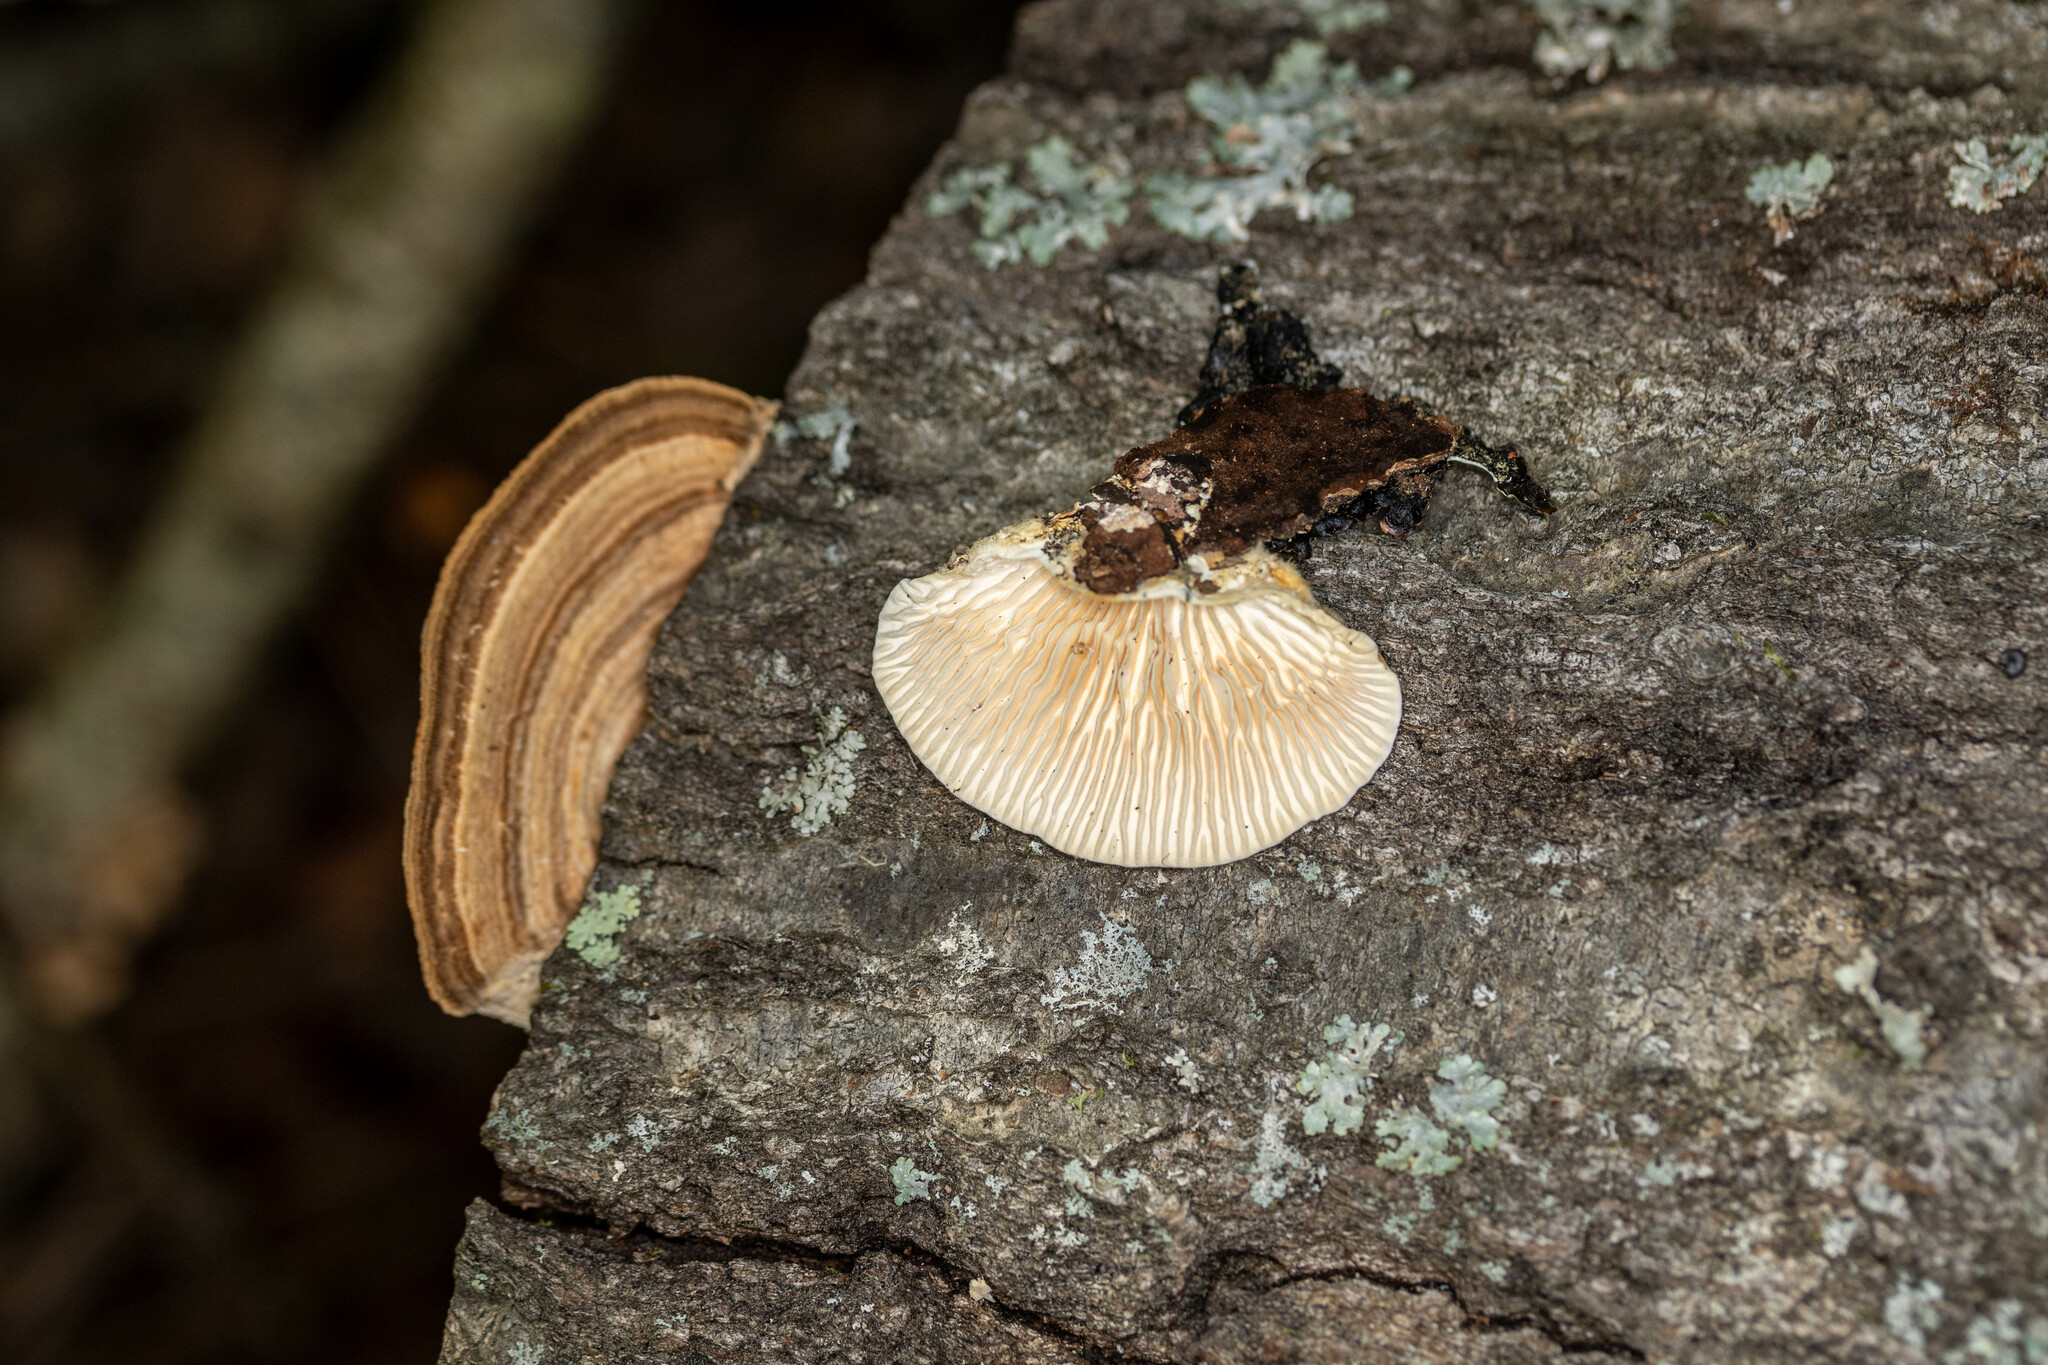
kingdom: Fungi
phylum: Basidiomycota
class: Agaricomycetes
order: Polyporales
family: Polyporaceae
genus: Lenzites
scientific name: Lenzites betulinus
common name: Birch mazegill
